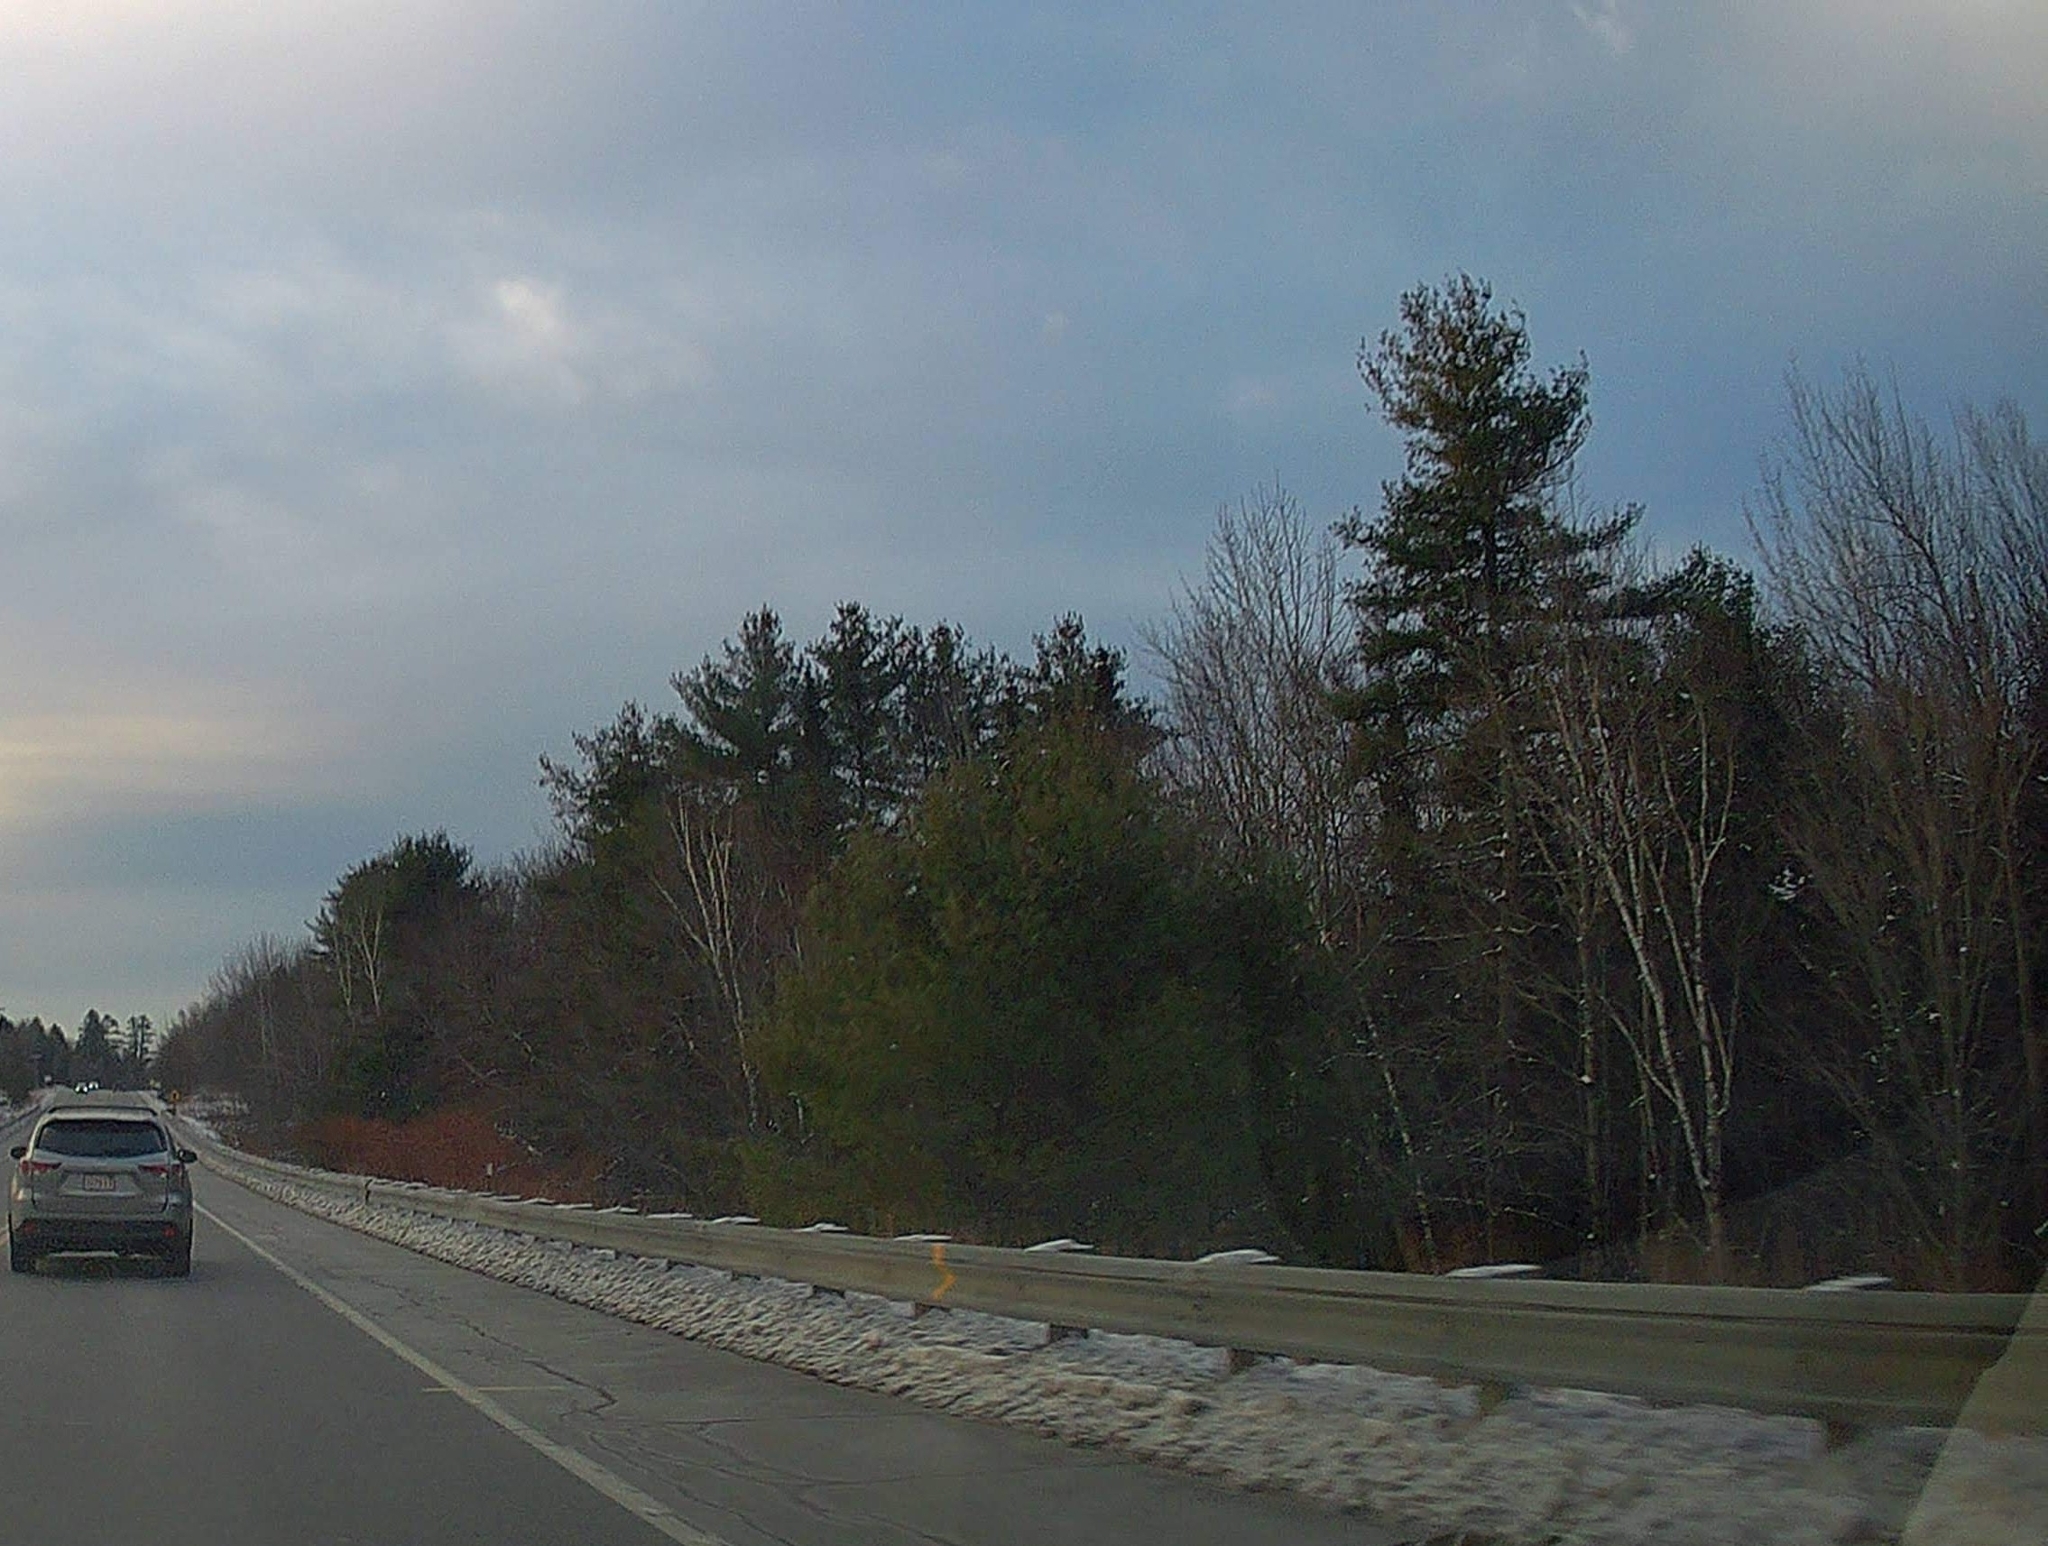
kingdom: Plantae
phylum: Tracheophyta
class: Pinopsida
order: Pinales
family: Pinaceae
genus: Pinus
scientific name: Pinus strobus
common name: Weymouth pine
